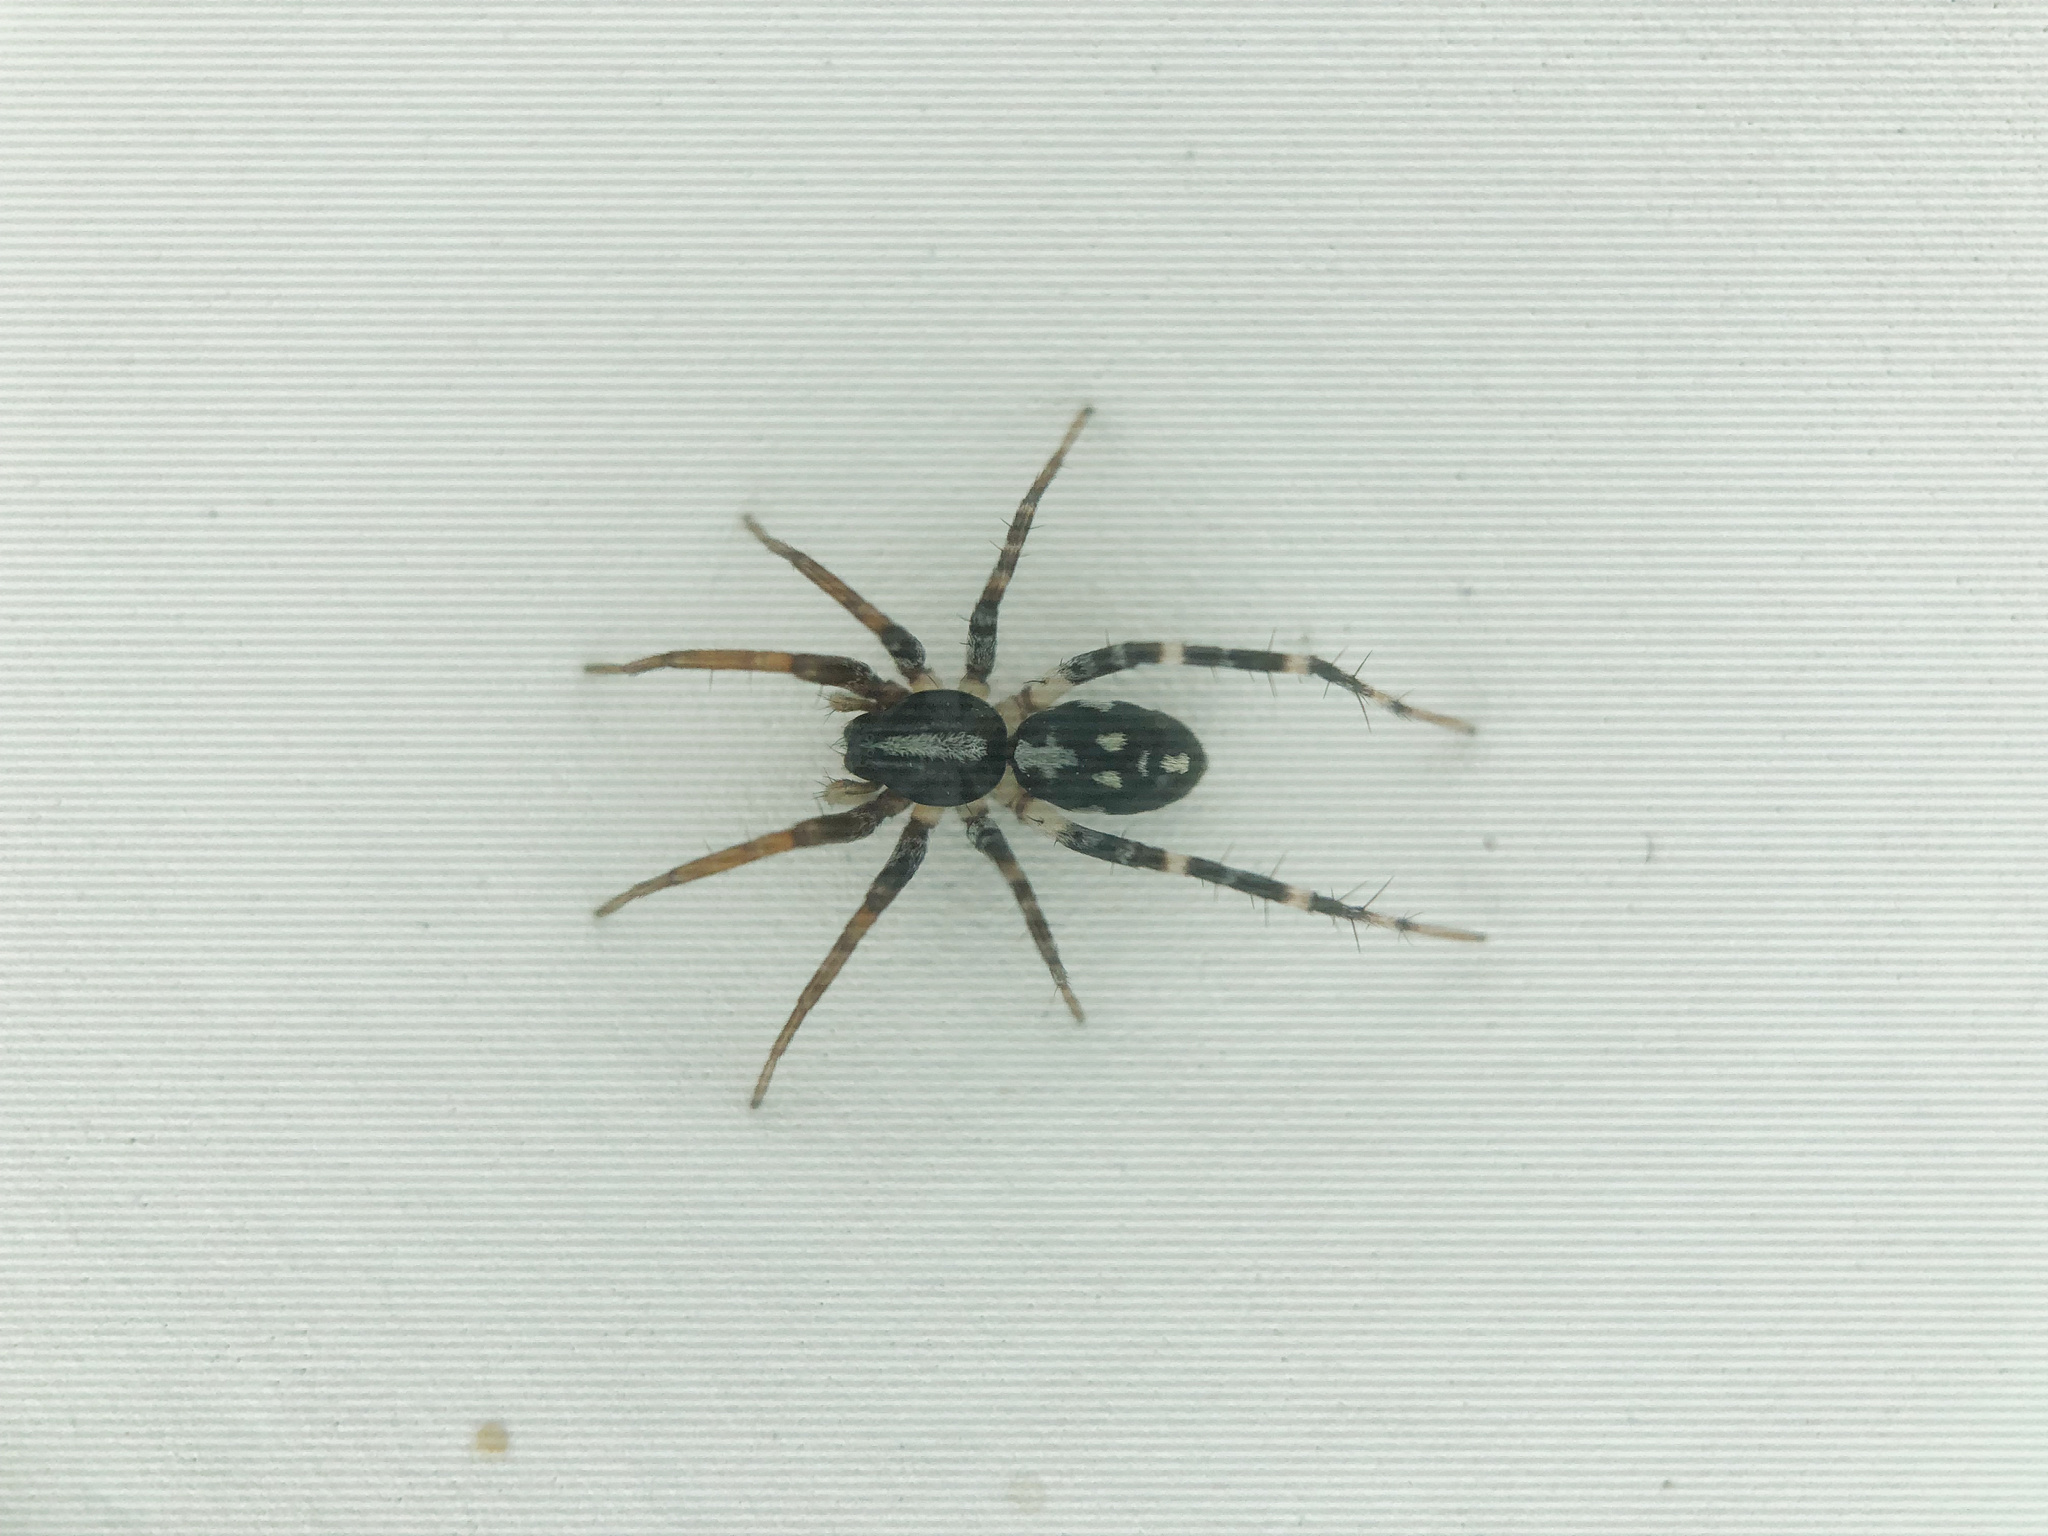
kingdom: Animalia
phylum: Arthropoda
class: Arachnida
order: Araneae
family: Corinnidae
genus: Nyssus
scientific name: Nyssus coloripes
